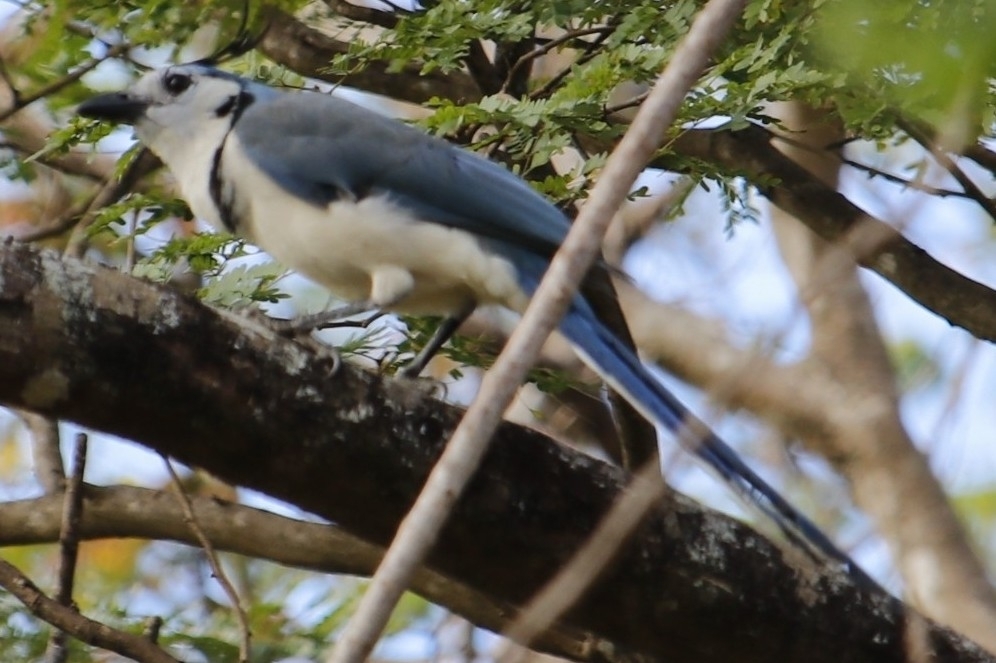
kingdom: Animalia
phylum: Chordata
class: Aves
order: Passeriformes
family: Corvidae
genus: Calocitta
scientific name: Calocitta formosa
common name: White-throated magpie-jay
